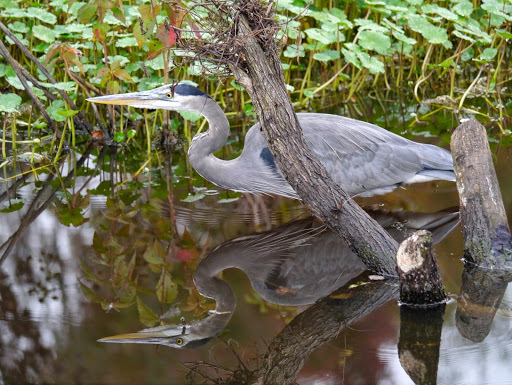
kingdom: Animalia
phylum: Chordata
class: Aves
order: Pelecaniformes
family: Ardeidae
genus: Ardea
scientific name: Ardea herodias
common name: Great blue heron
